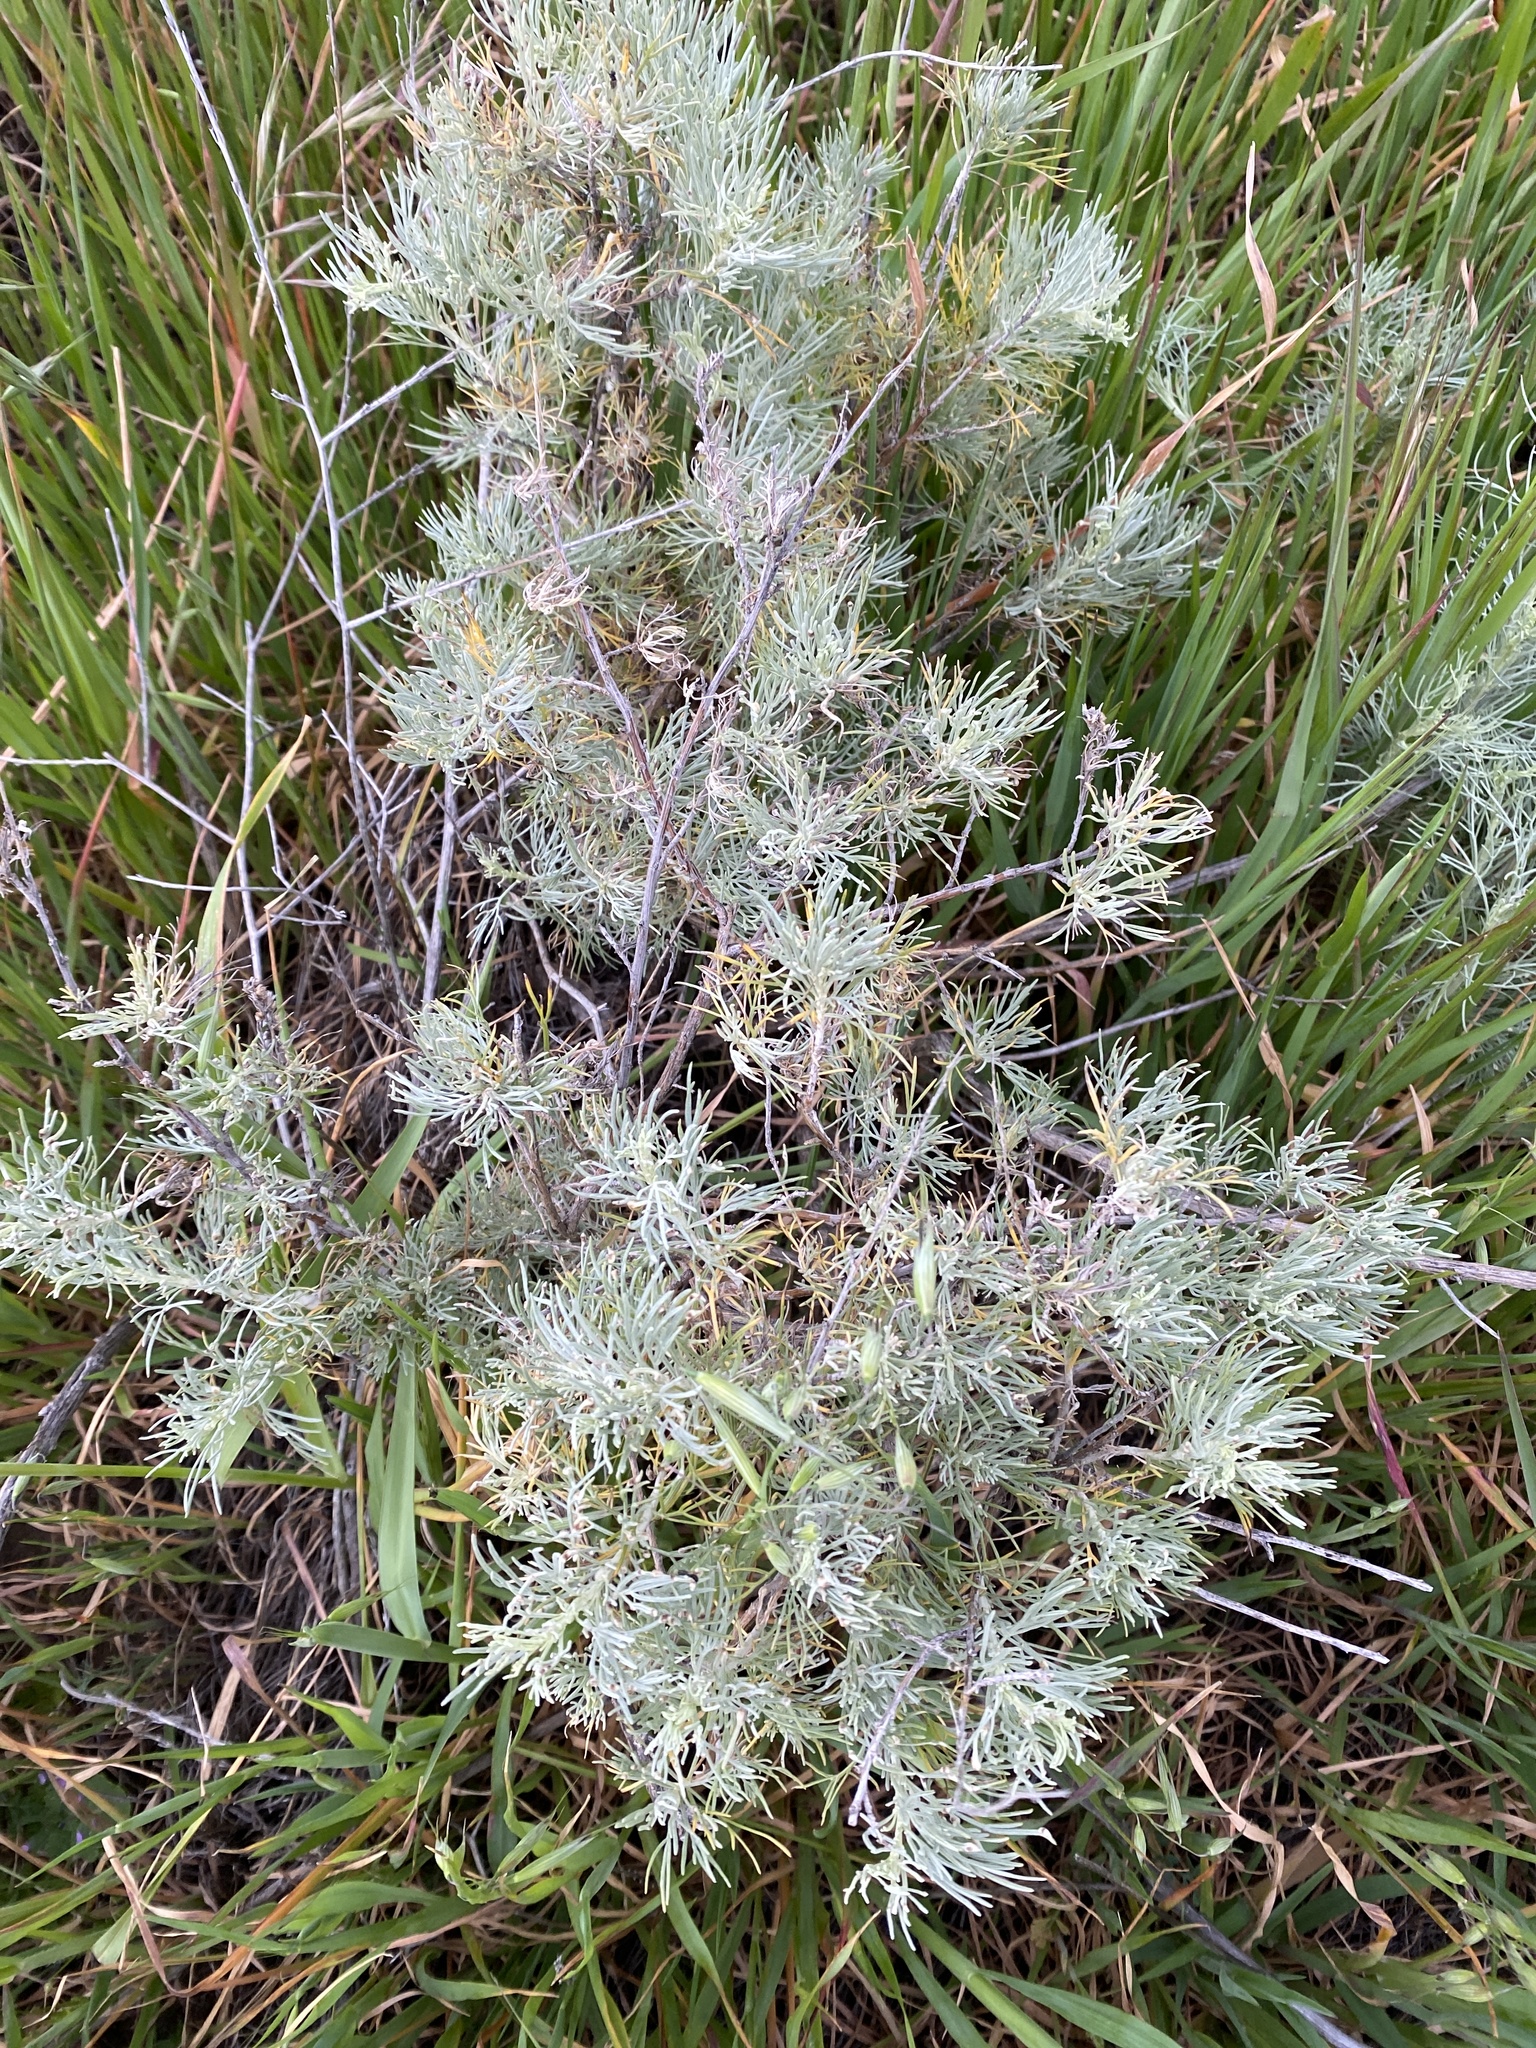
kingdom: Plantae
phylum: Tracheophyta
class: Magnoliopsida
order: Asterales
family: Asteraceae
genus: Artemisia
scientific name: Artemisia californica
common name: California sagebrush
